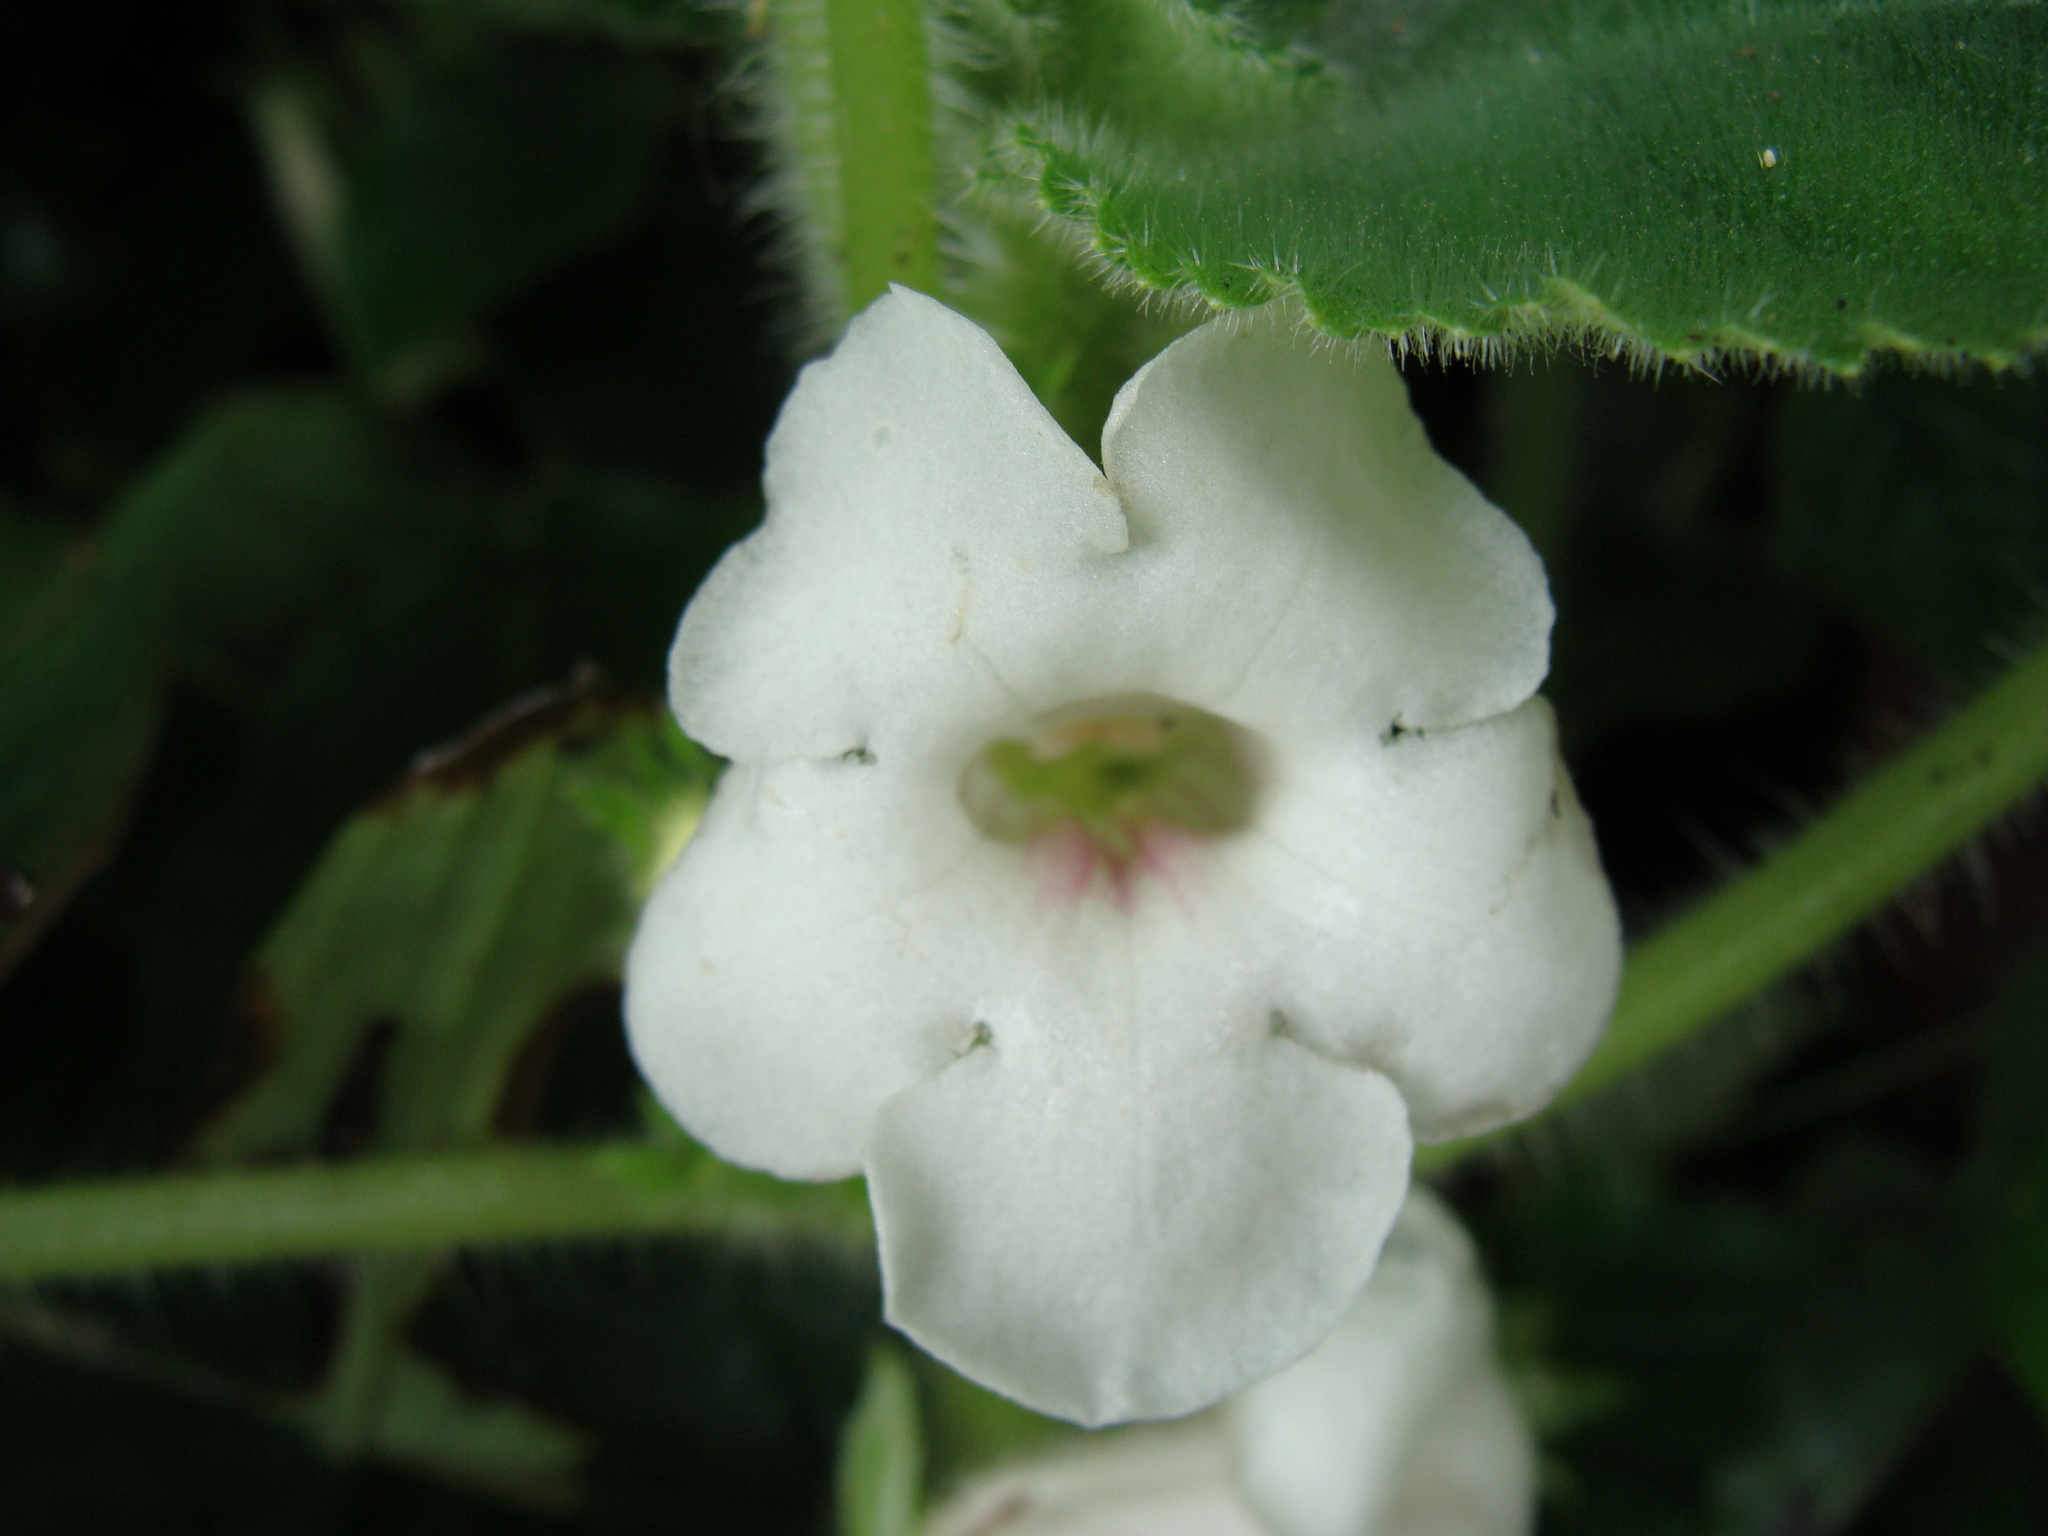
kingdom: Plantae
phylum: Tracheophyta
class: Magnoliopsida
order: Lamiales
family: Gesneriaceae
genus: Chrysothemis
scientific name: Chrysothemis panamensis
